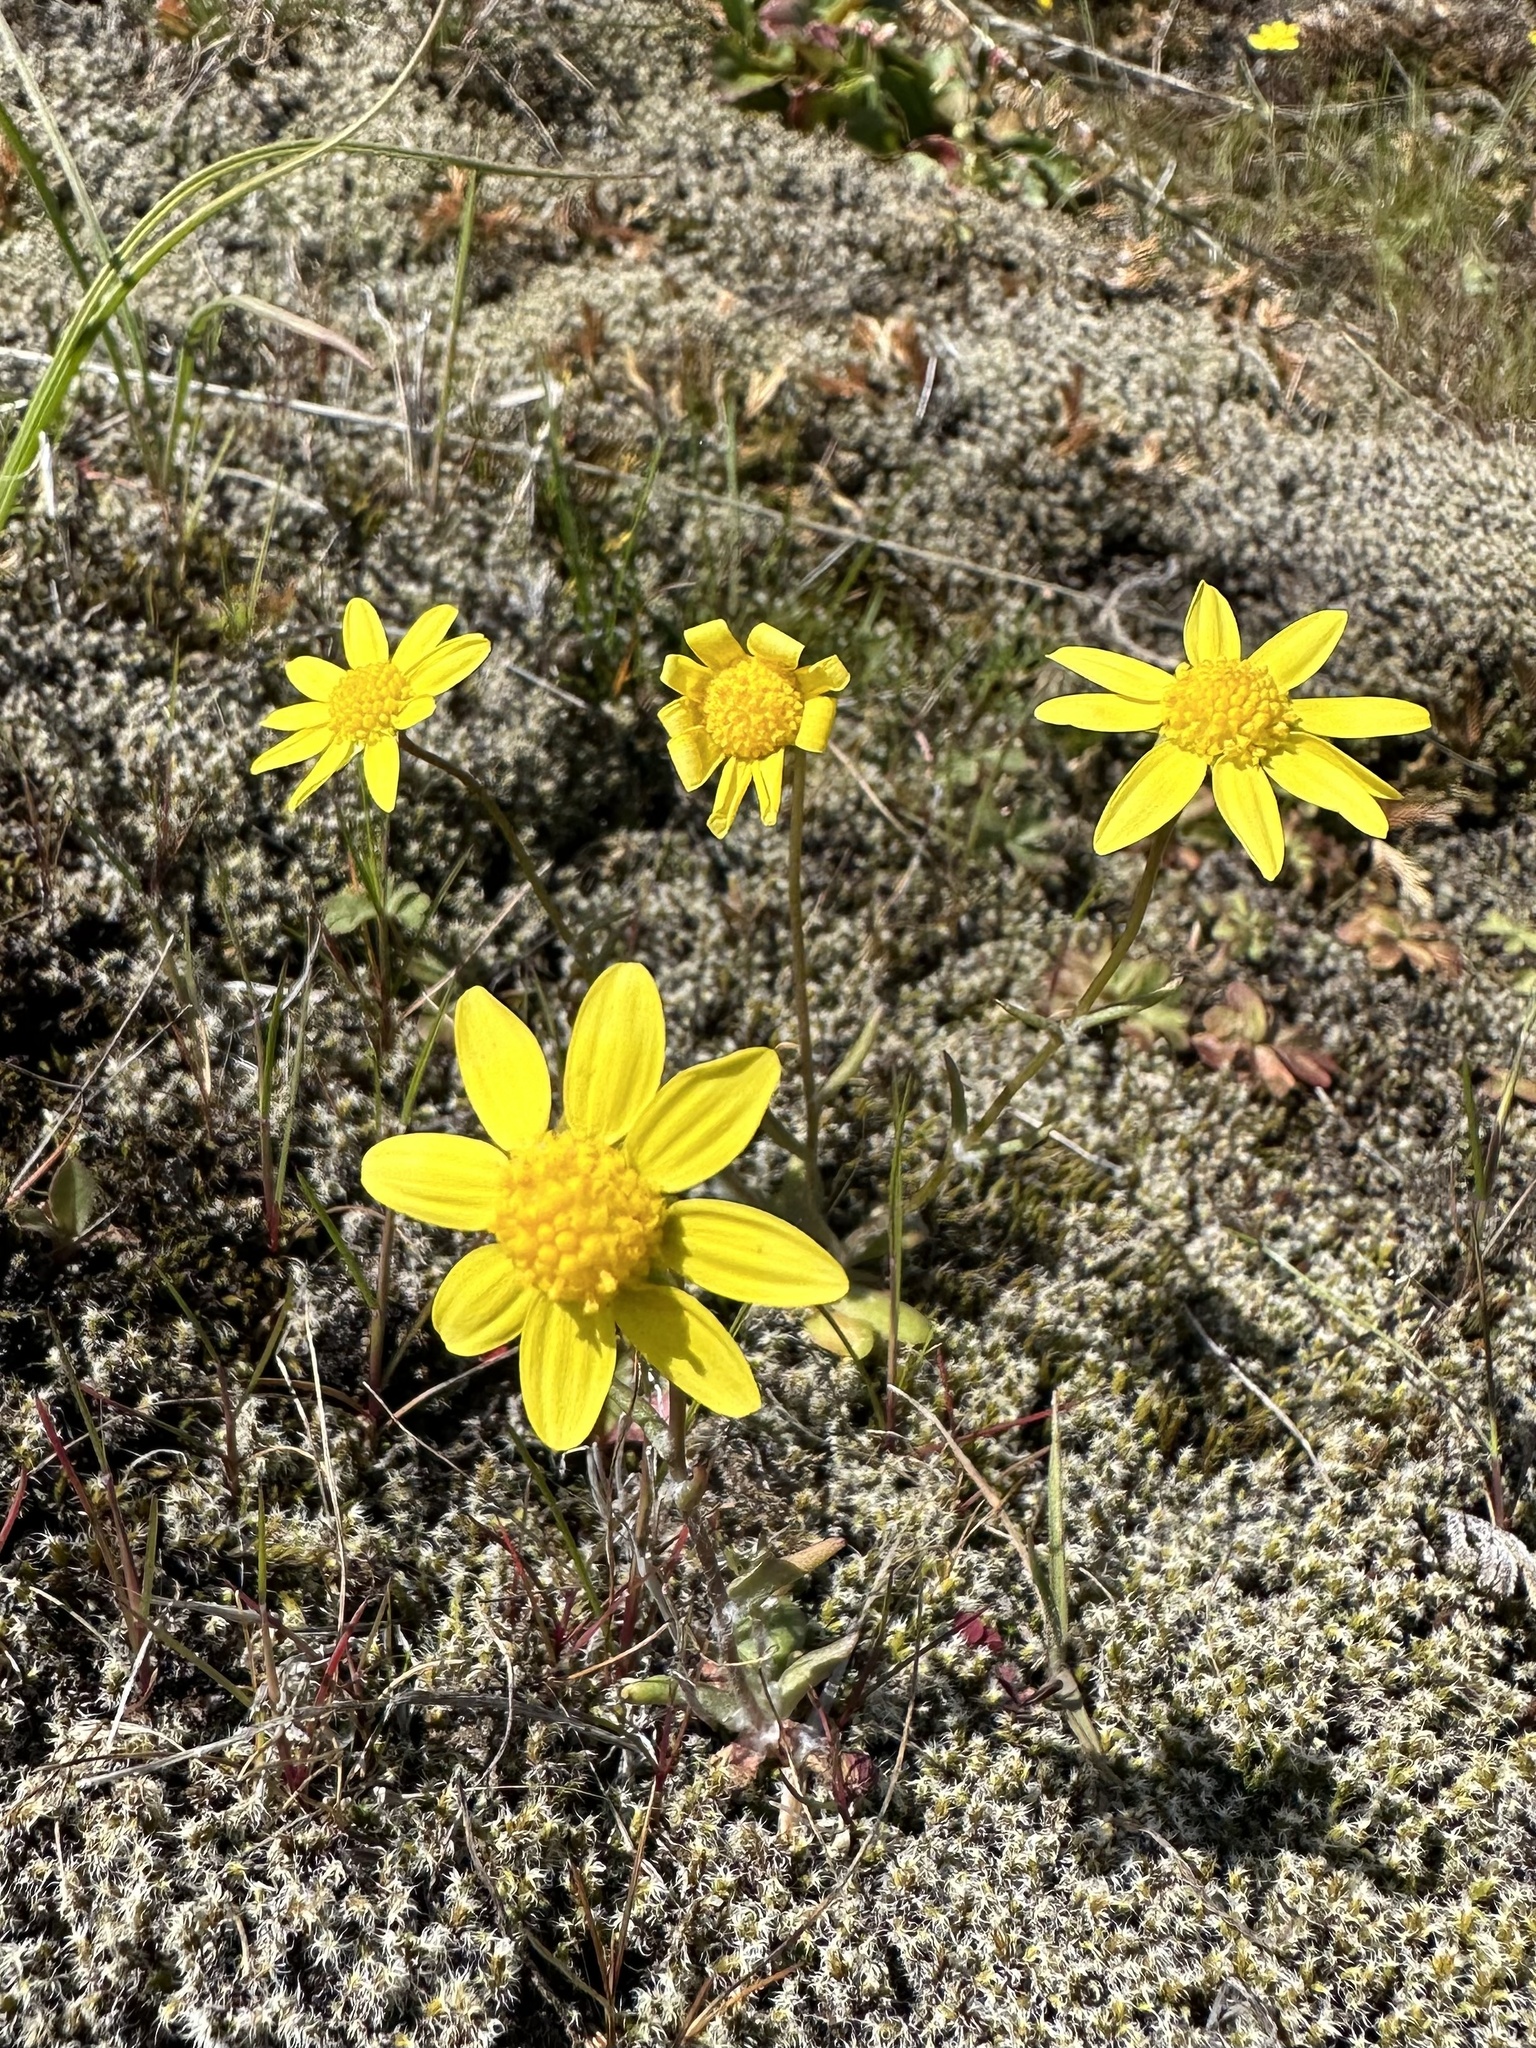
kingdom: Plantae
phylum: Tracheophyta
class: Magnoliopsida
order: Asterales
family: Asteraceae
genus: Crocidium
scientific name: Crocidium multicaule
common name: Common spring gold
